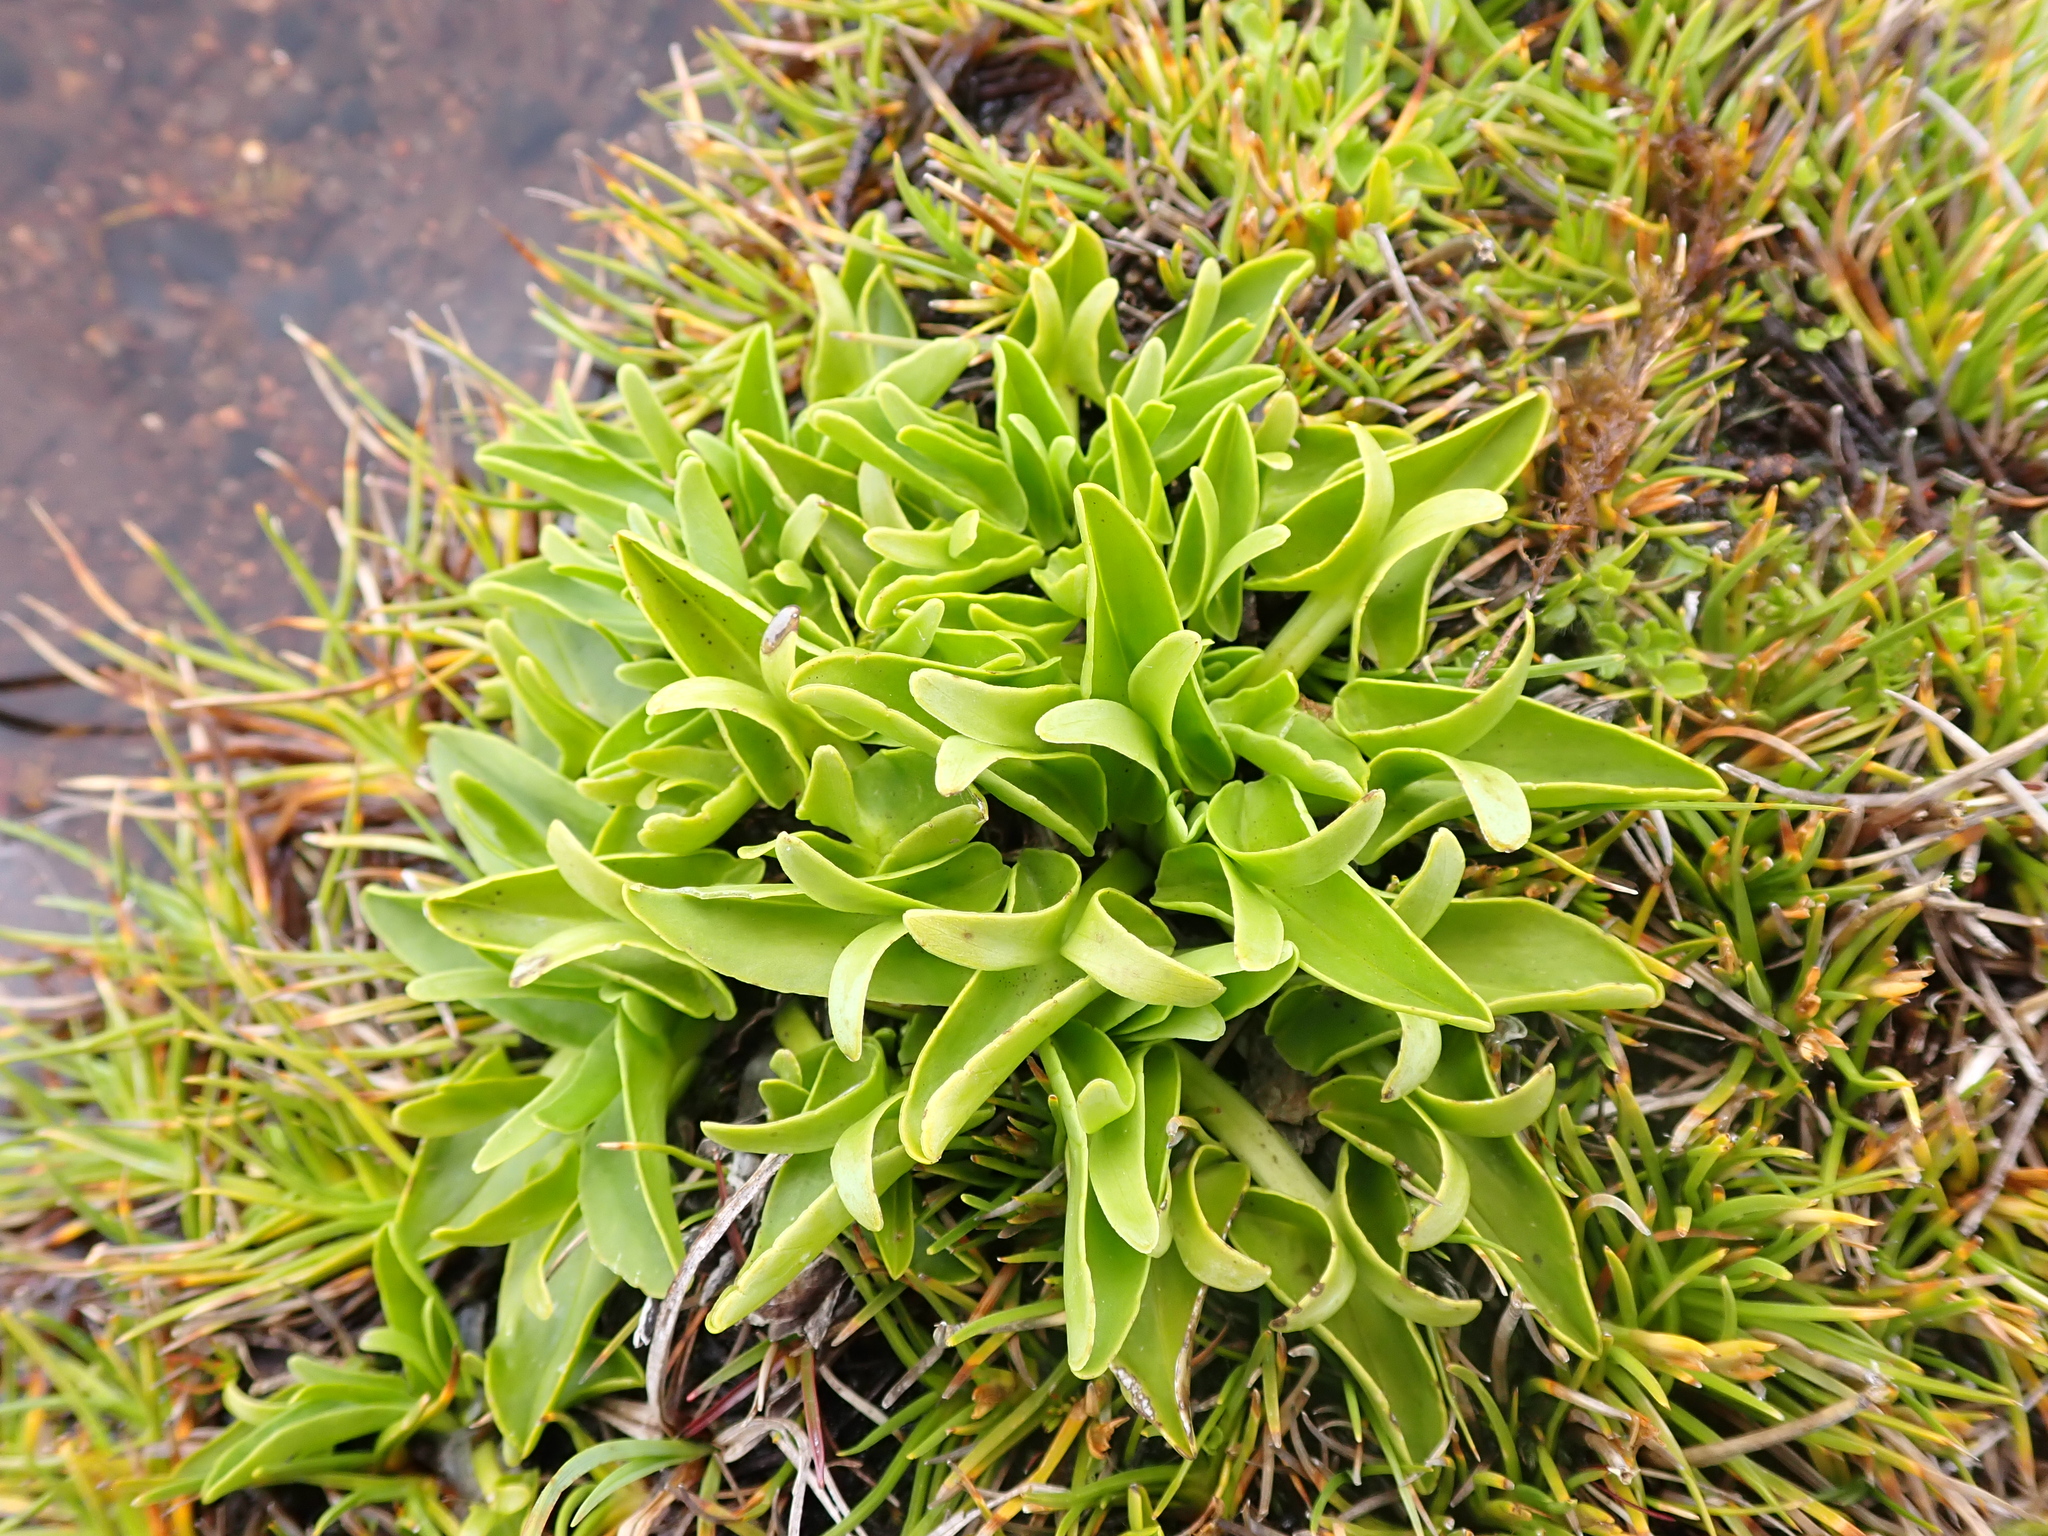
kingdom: Plantae
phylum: Tracheophyta
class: Magnoliopsida
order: Ranunculales
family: Ranunculaceae
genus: Caltha
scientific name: Caltha introloba
